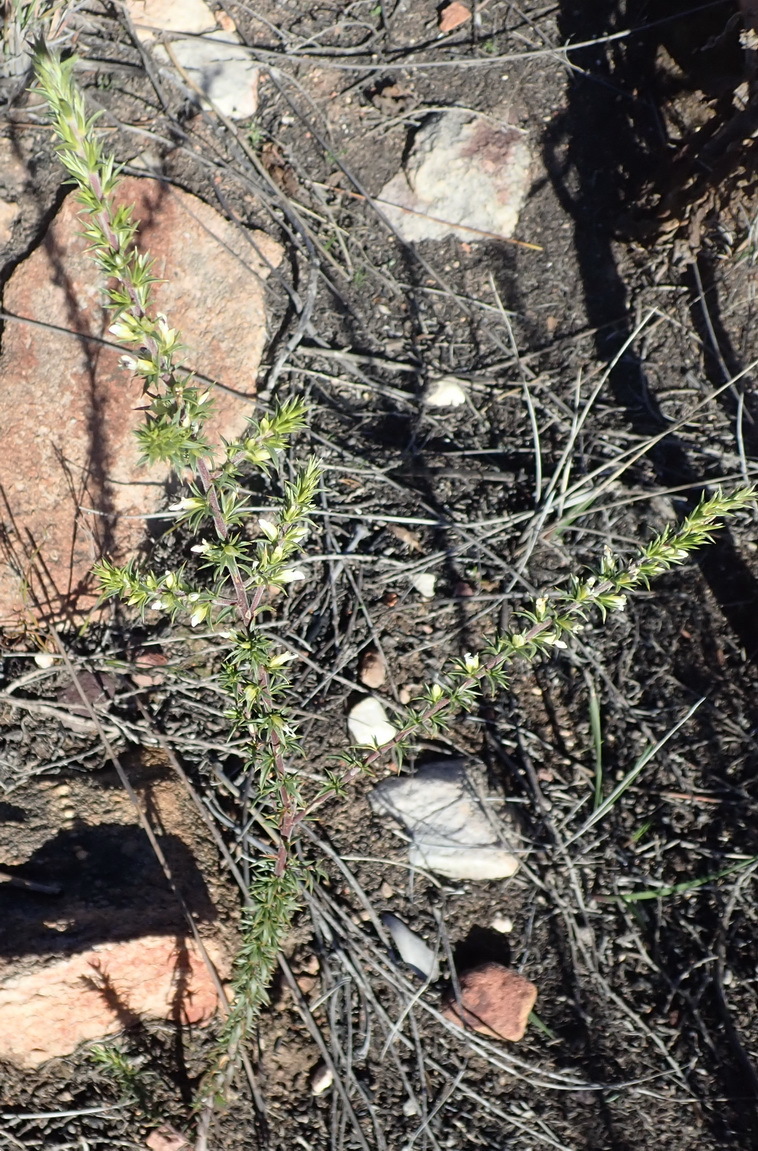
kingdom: Plantae
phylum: Tracheophyta
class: Magnoliopsida
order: Fabales
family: Polygalaceae
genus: Muraltia
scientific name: Muraltia ericifolia
